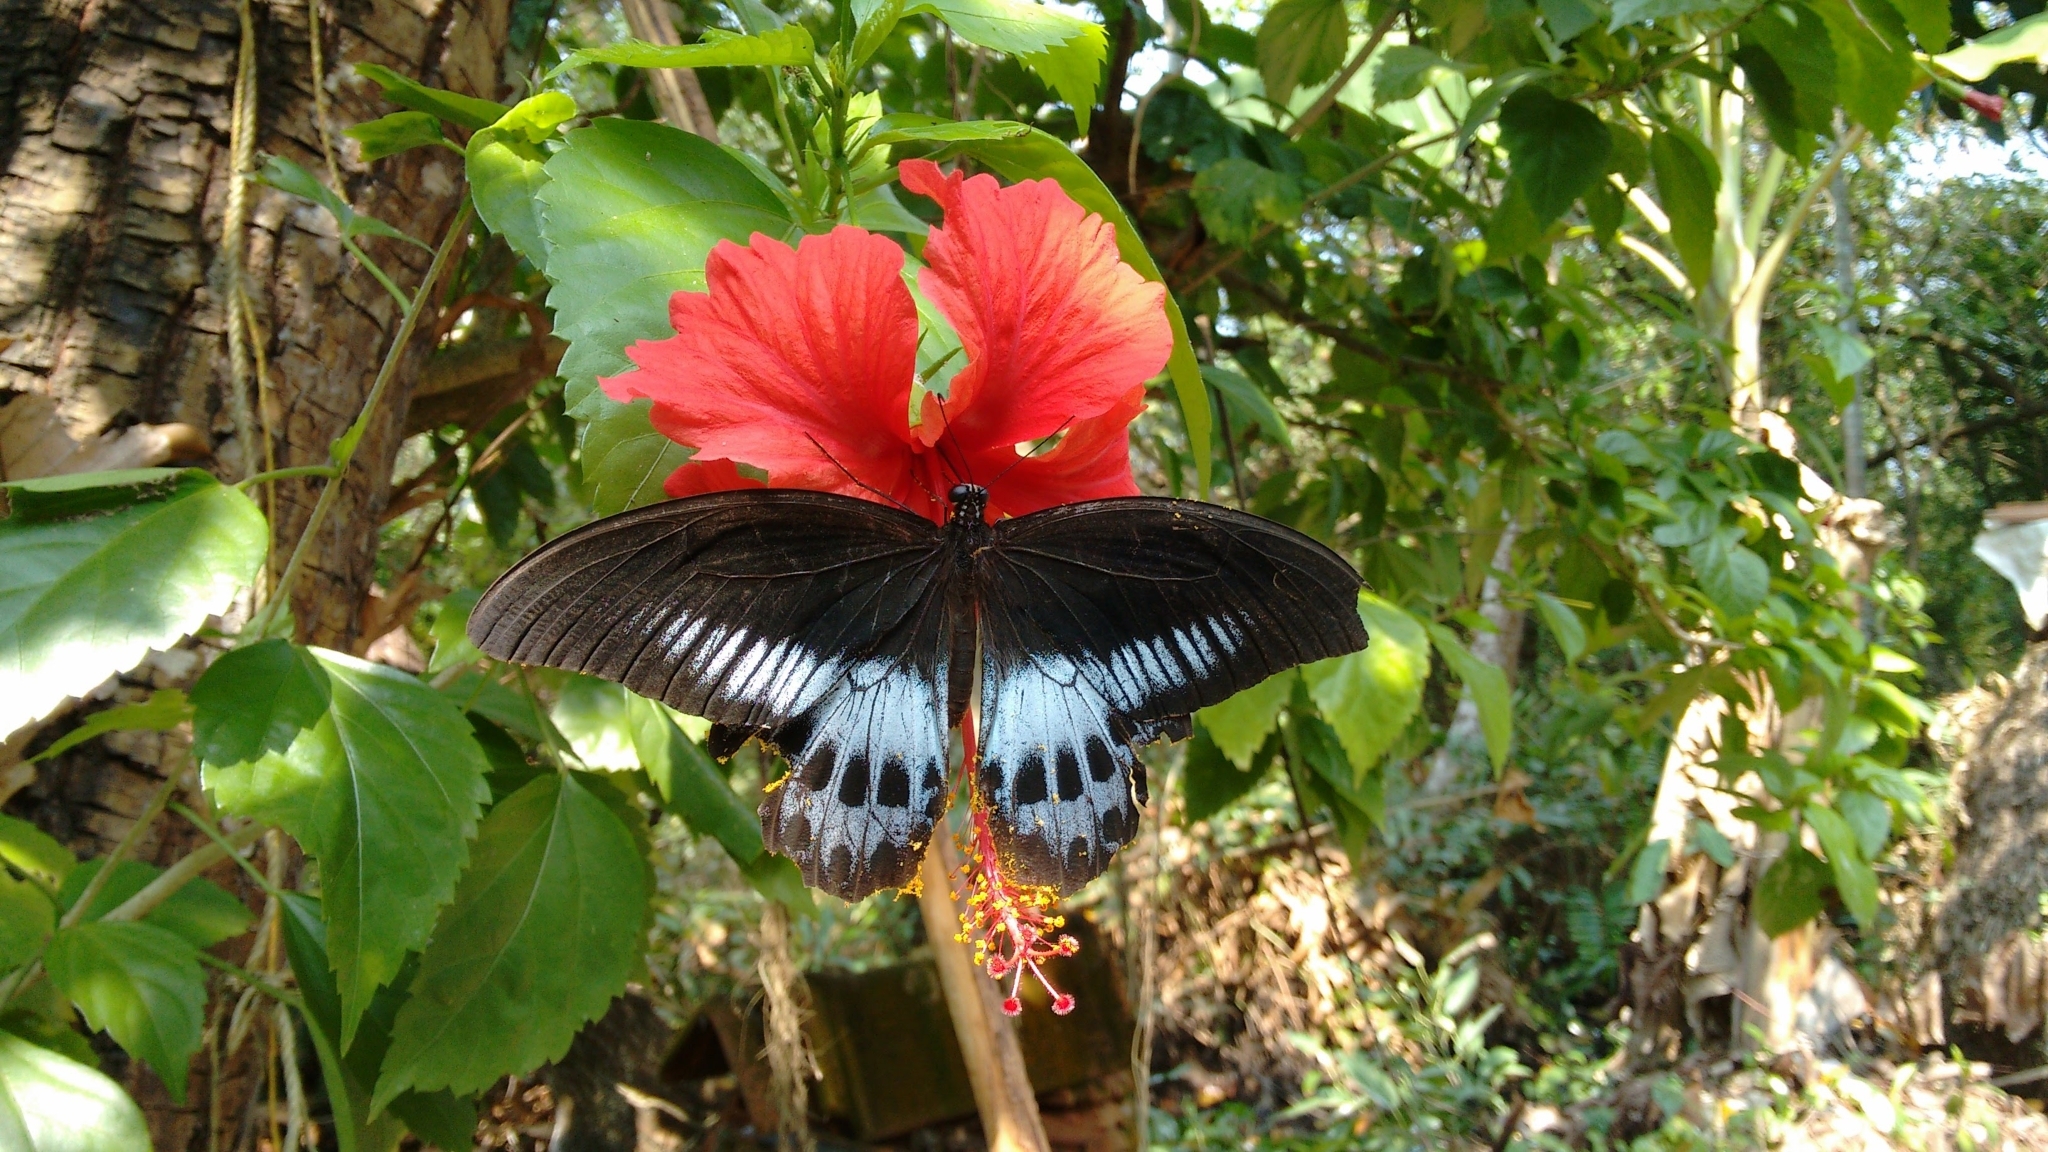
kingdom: Animalia
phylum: Arthropoda
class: Insecta
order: Lepidoptera
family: Papilionidae
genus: Papilio
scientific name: Papilio memnon
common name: Great mormon
